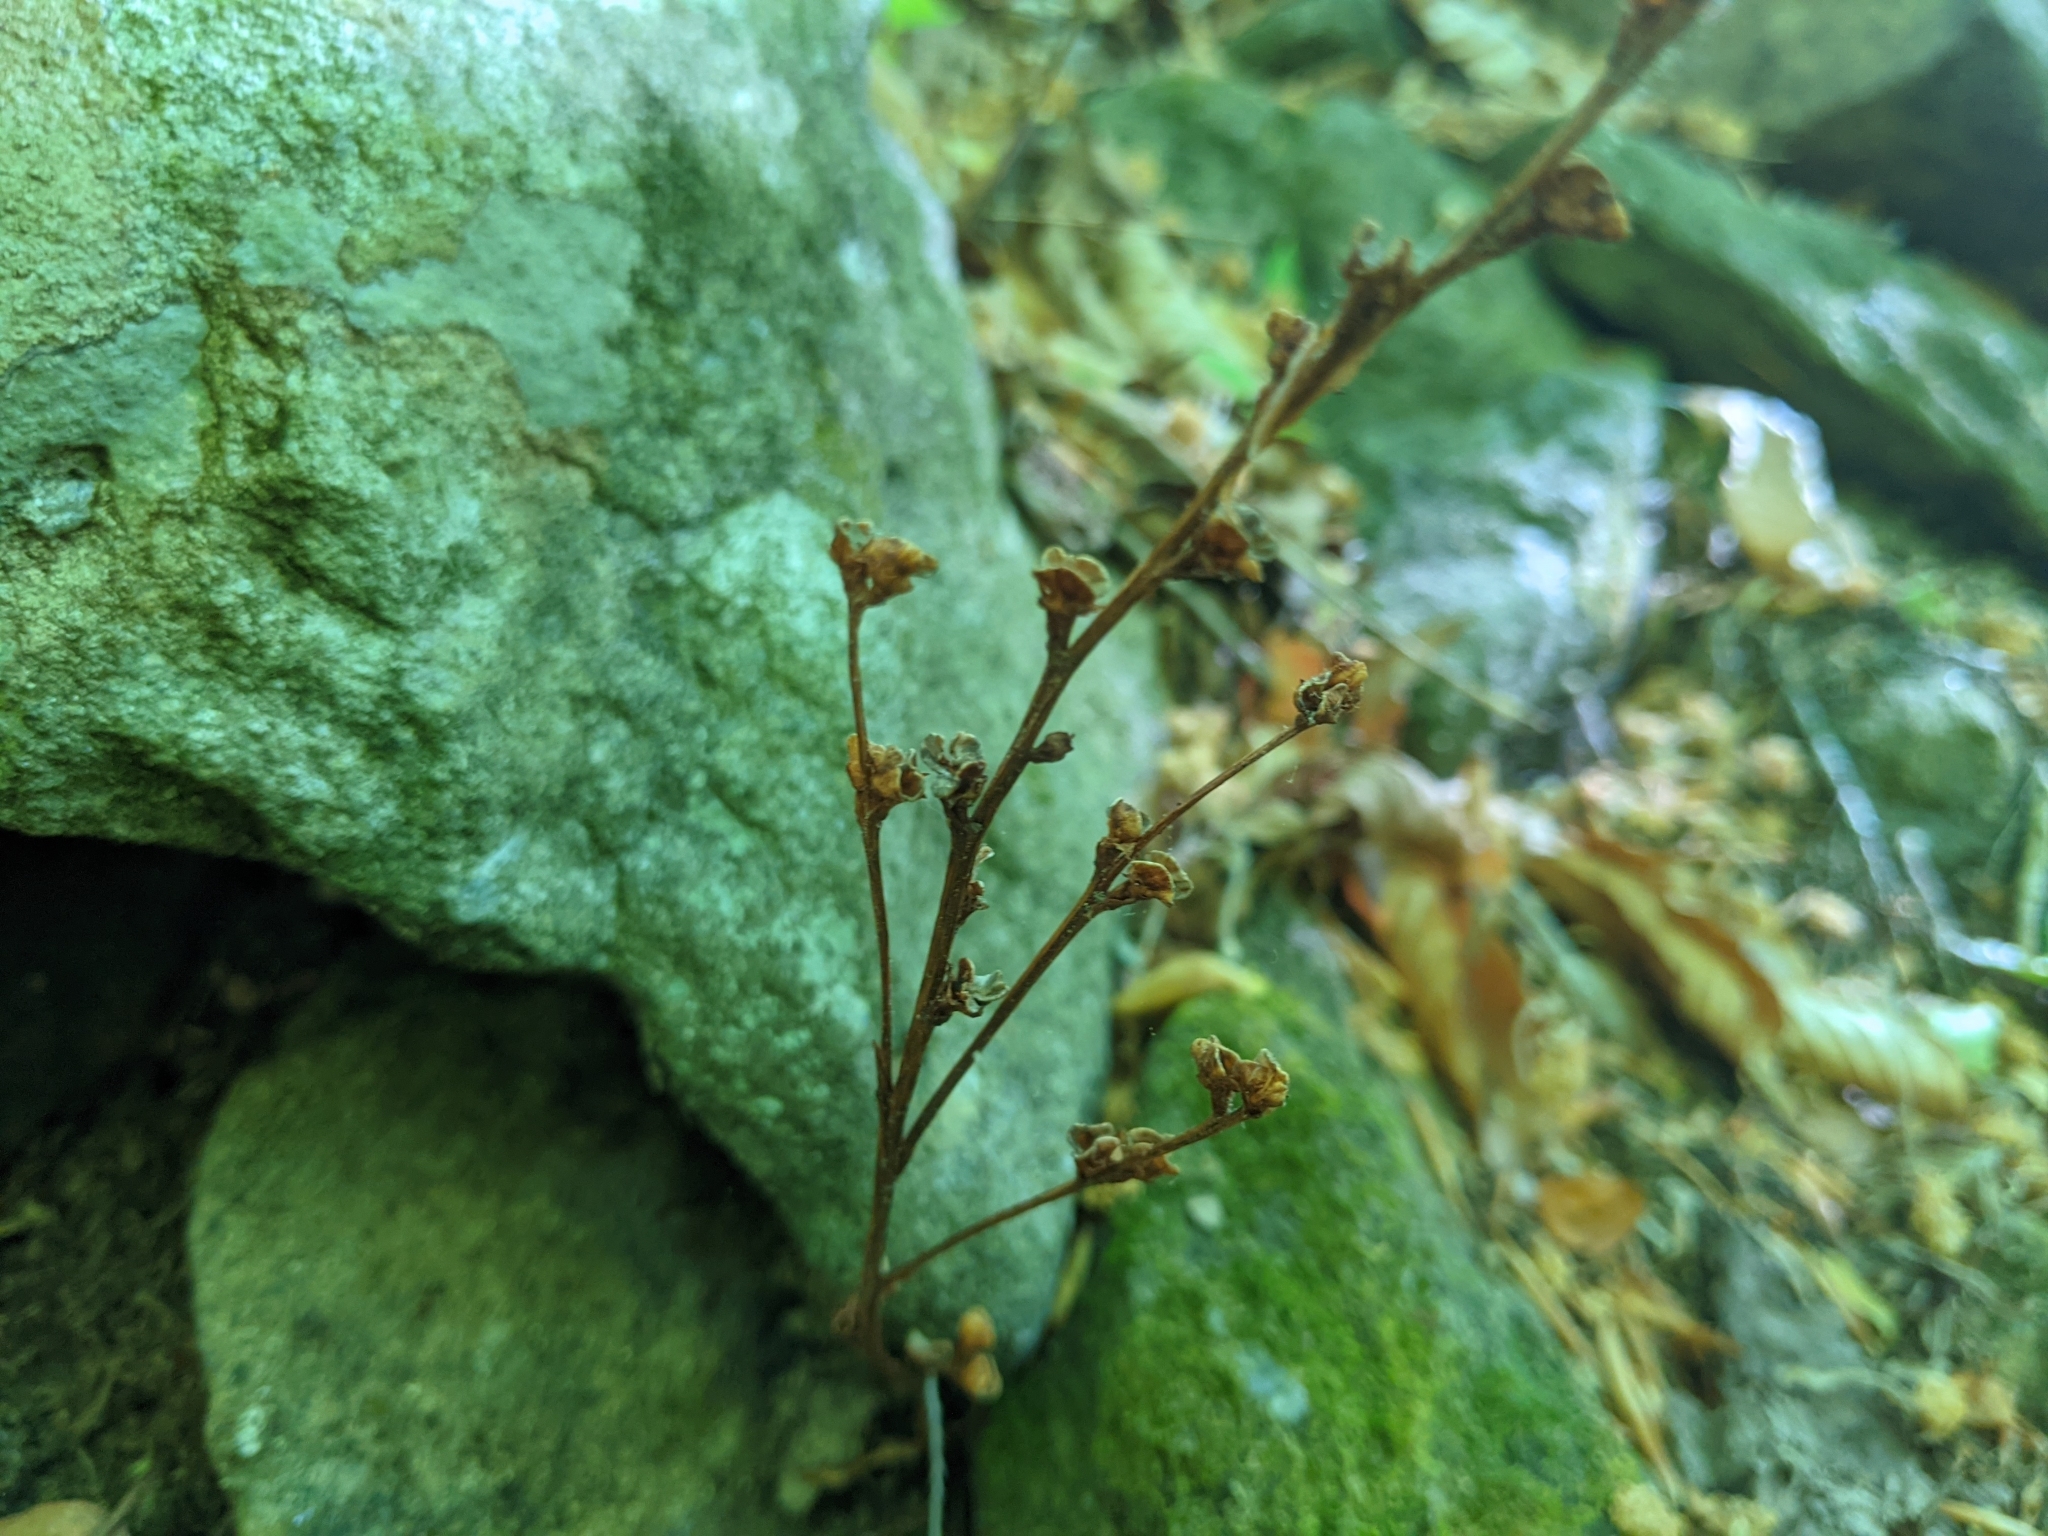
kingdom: Plantae
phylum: Tracheophyta
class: Magnoliopsida
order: Lamiales
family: Orobanchaceae
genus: Epifagus
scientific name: Epifagus virginiana
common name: Beechdrops
